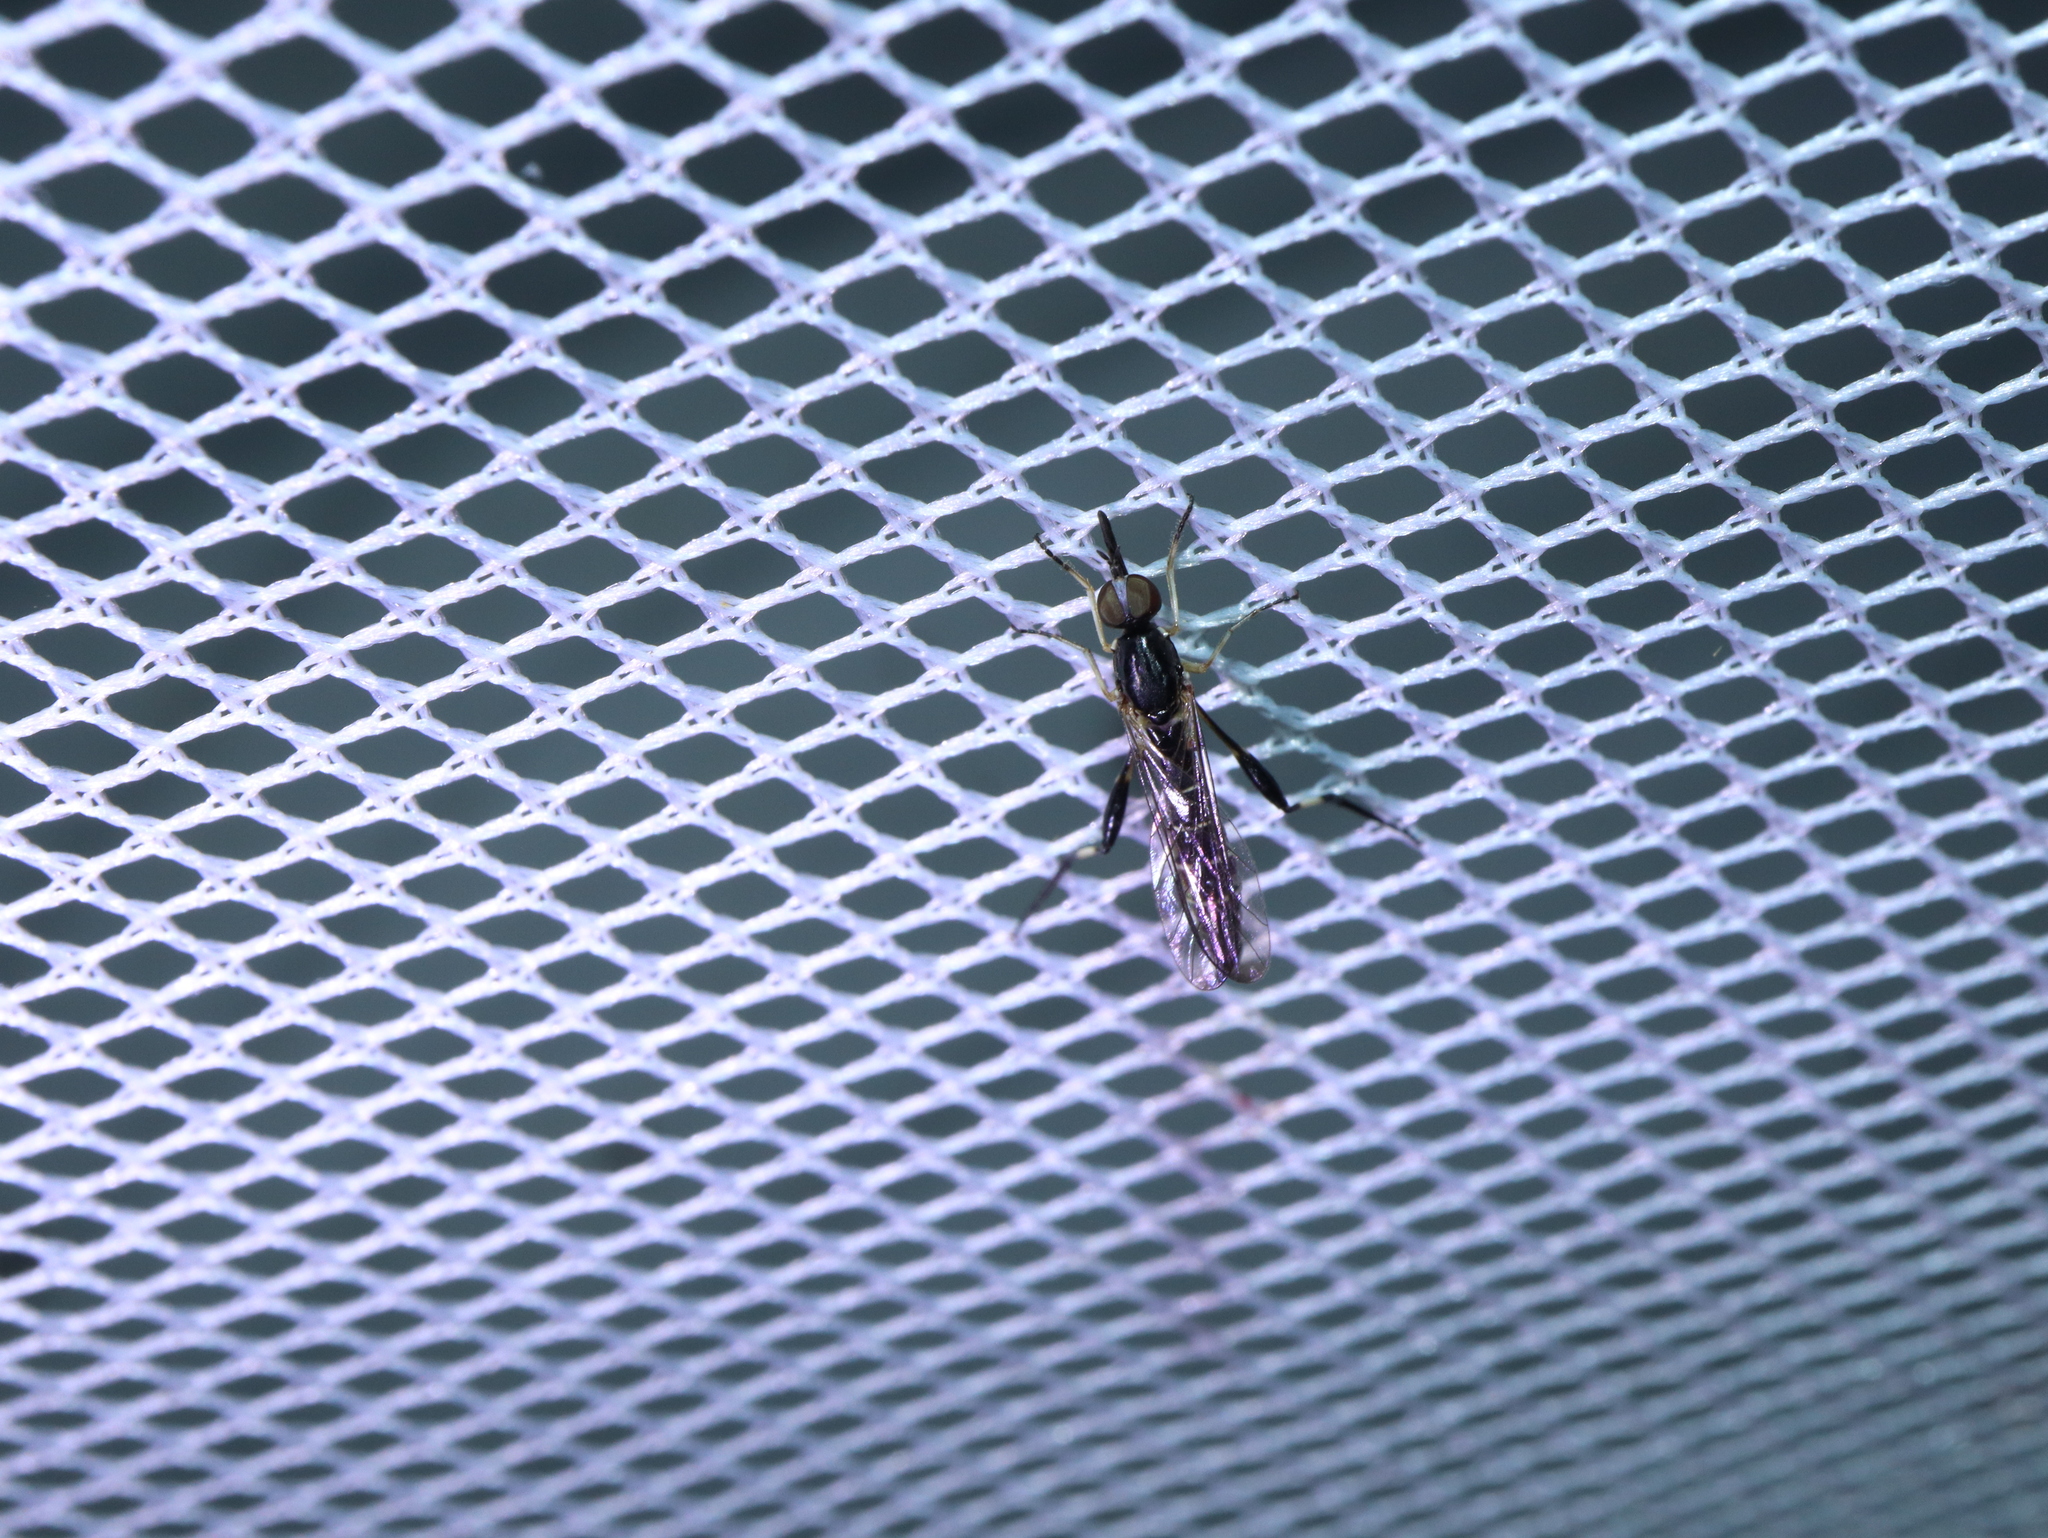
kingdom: Animalia
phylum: Arthropoda
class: Insecta
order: Diptera
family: Bombyliidae
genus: Zaclava
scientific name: Zaclava clavifemorata
